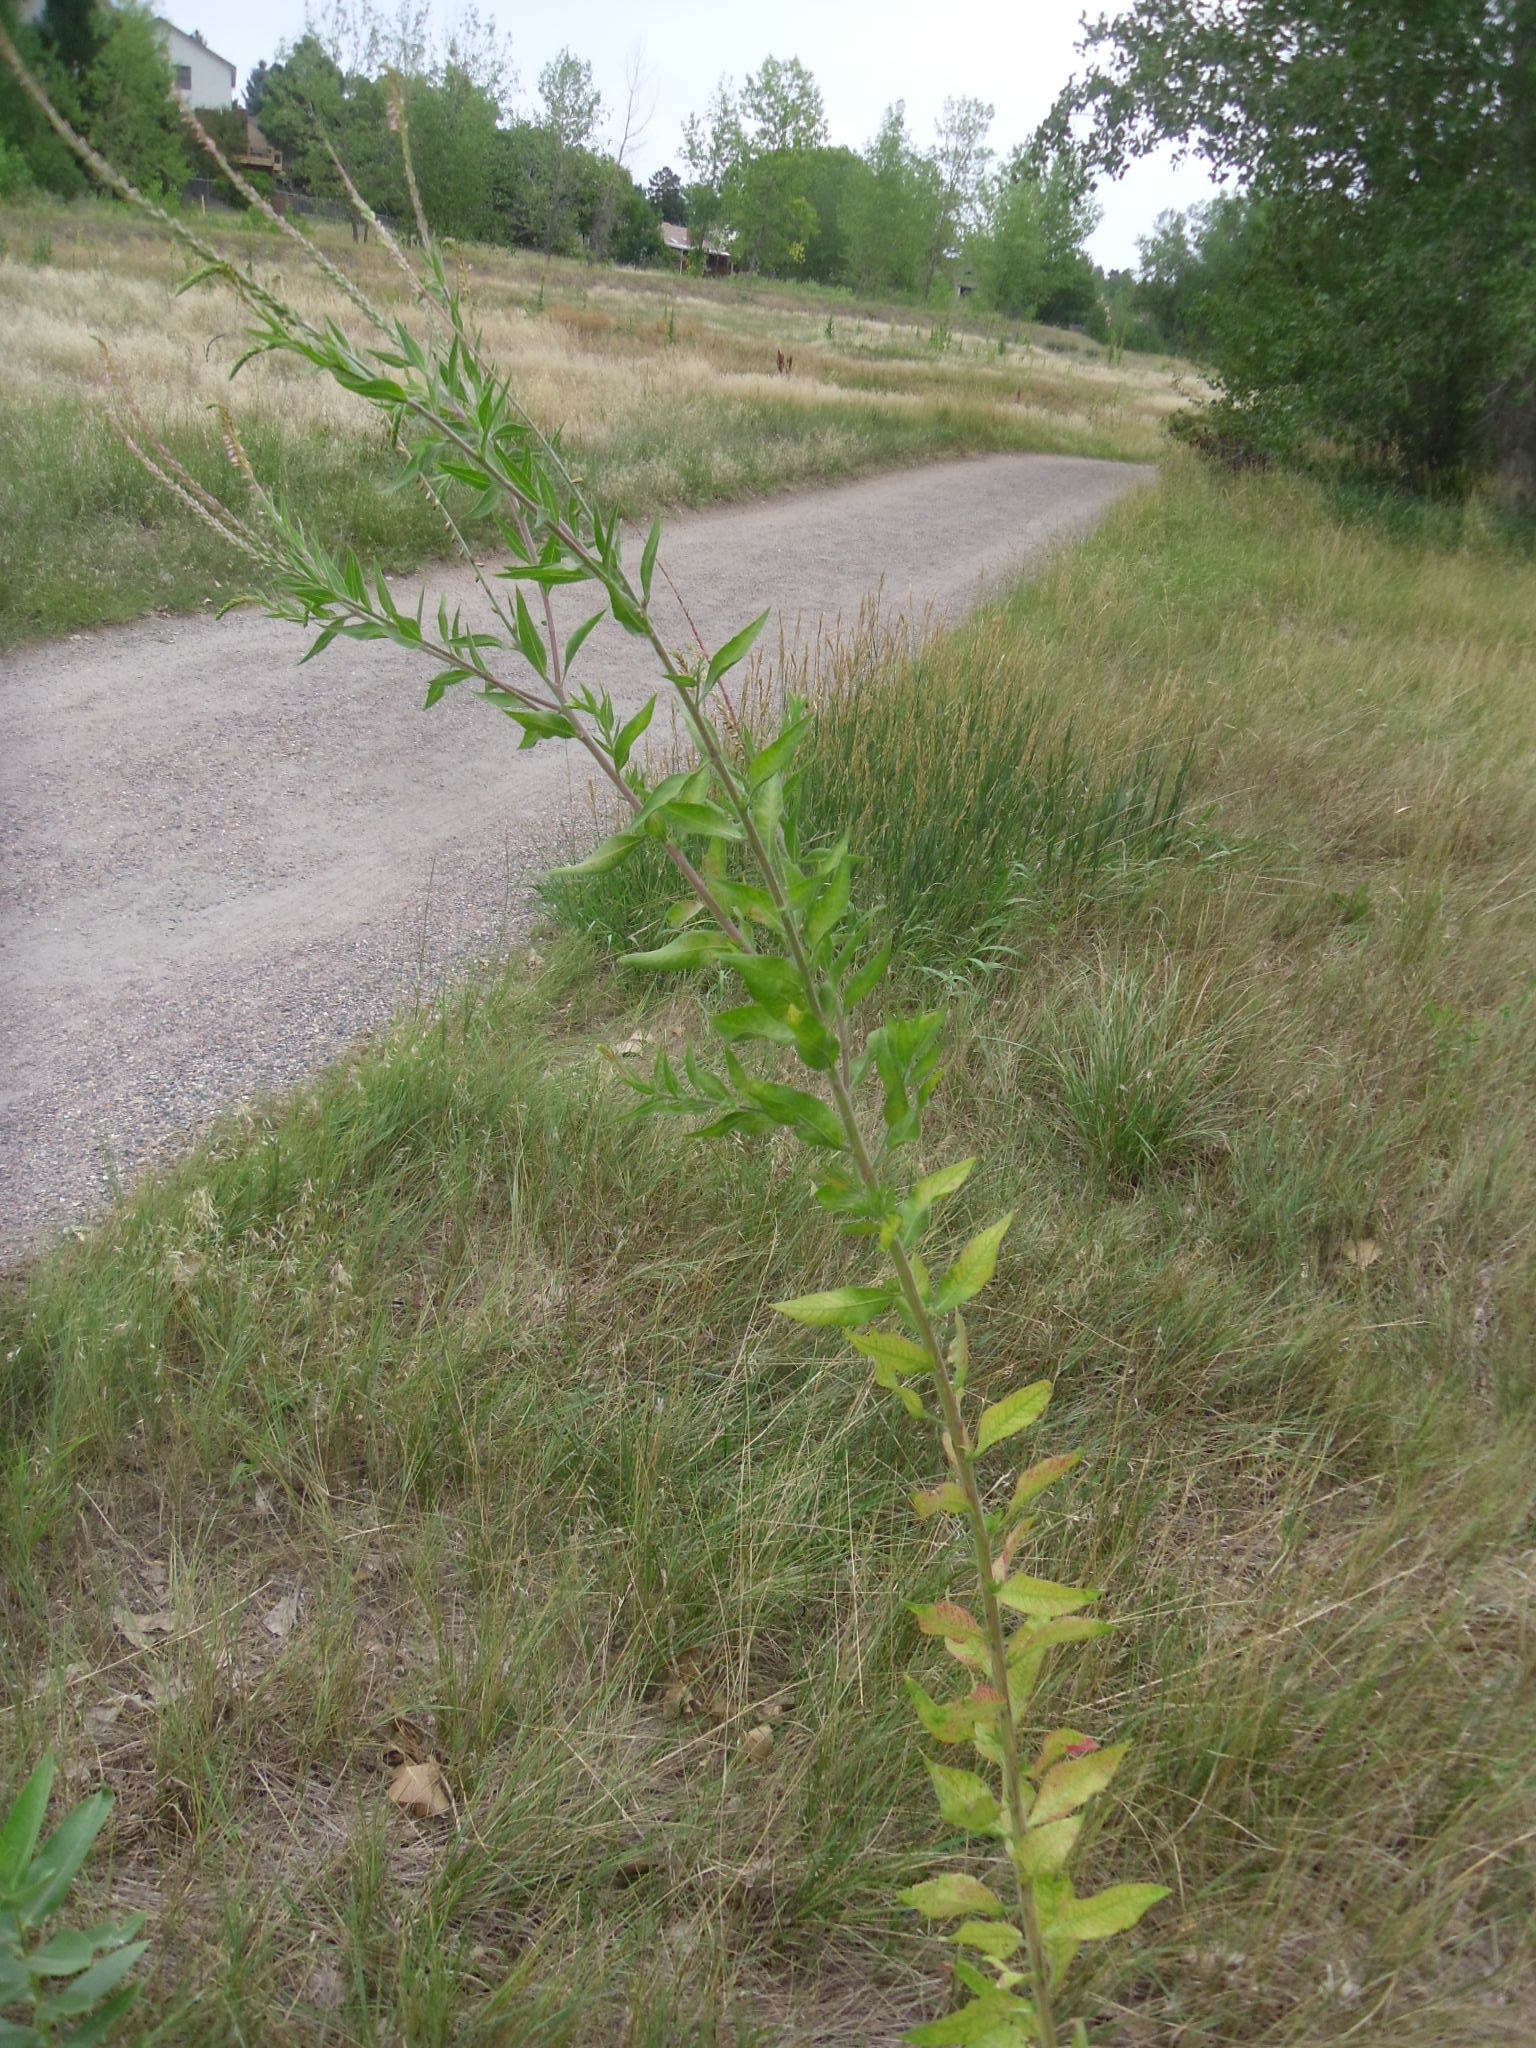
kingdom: Plantae
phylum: Tracheophyta
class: Magnoliopsida
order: Myrtales
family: Onagraceae
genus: Oenothera
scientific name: Oenothera curtiflora
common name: Velvetweed
